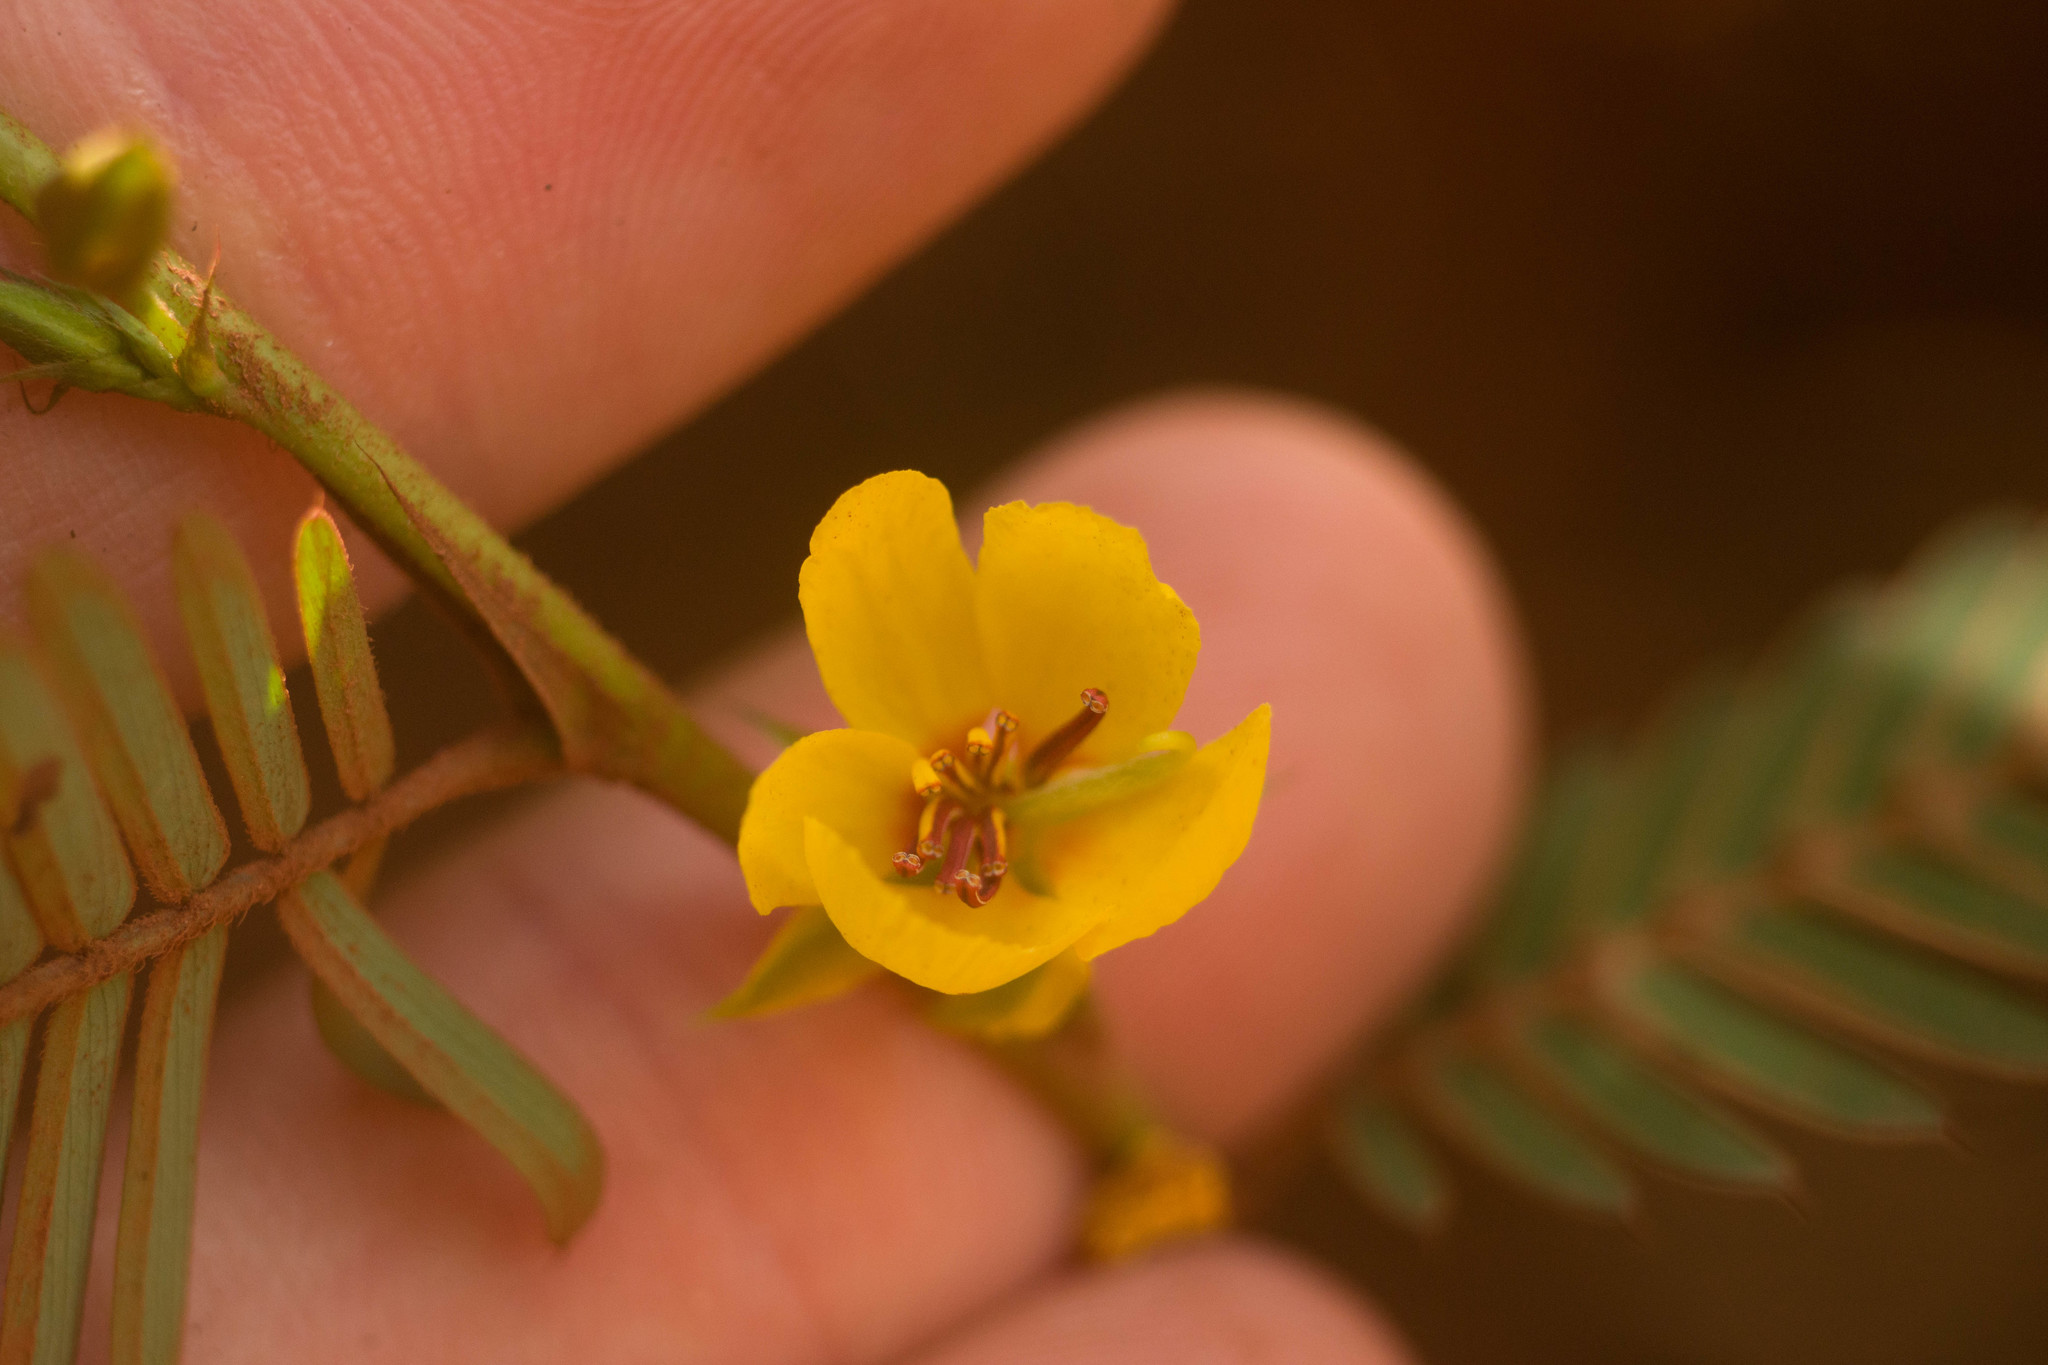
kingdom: Plantae
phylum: Tracheophyta
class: Magnoliopsida
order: Fabales
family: Fabaceae
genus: Chamaecrista
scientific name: Chamaecrista nictitans
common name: Sensitive cassia
